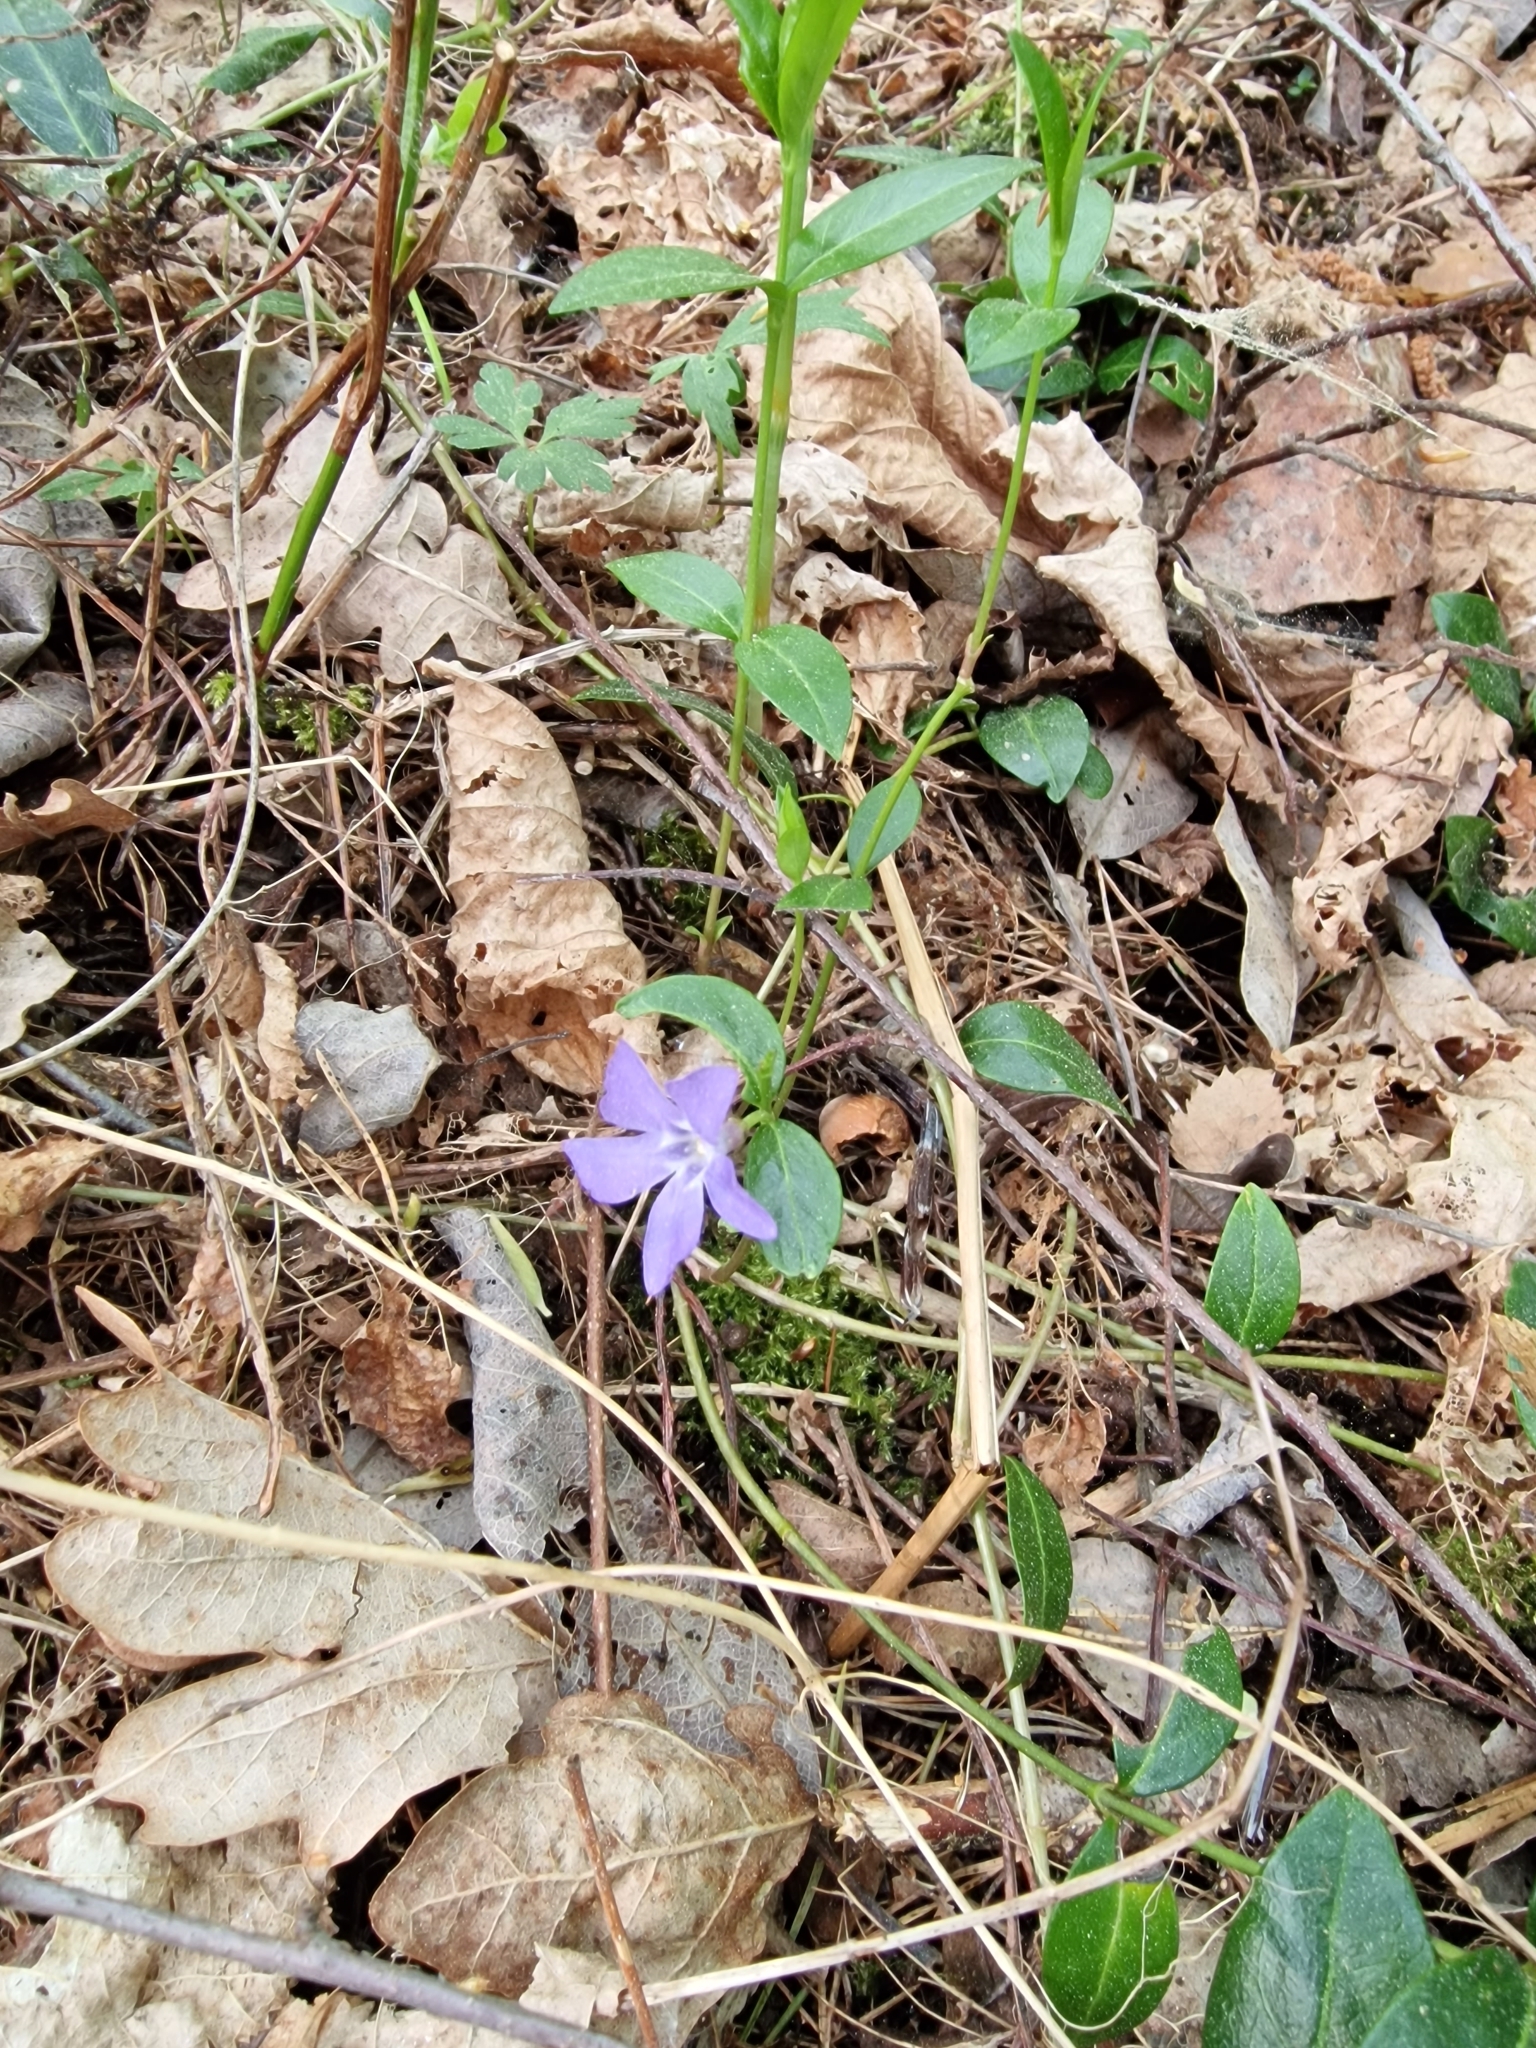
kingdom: Plantae
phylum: Tracheophyta
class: Magnoliopsida
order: Gentianales
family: Apocynaceae
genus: Vinca
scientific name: Vinca minor
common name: Lesser periwinkle
